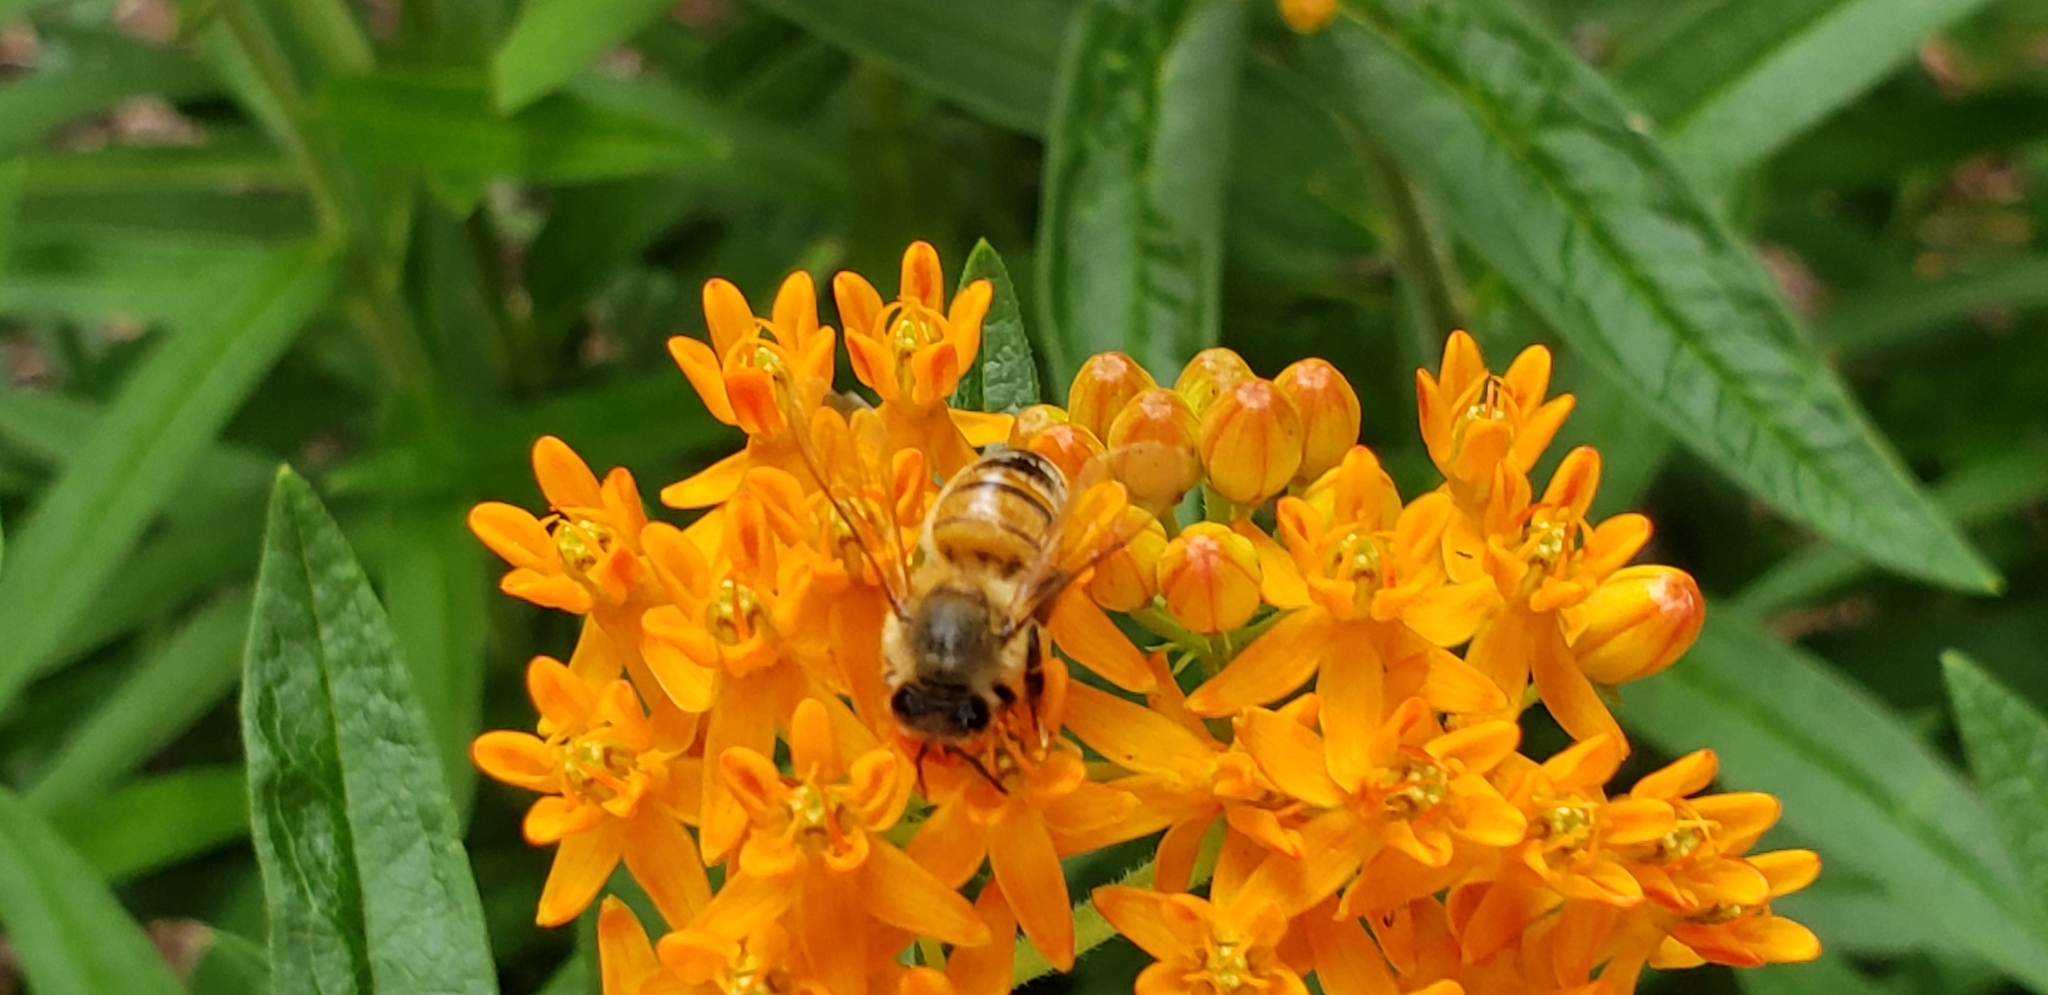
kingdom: Animalia
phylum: Arthropoda
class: Insecta
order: Hymenoptera
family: Apidae
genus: Apis
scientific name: Apis mellifera
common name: Honey bee
